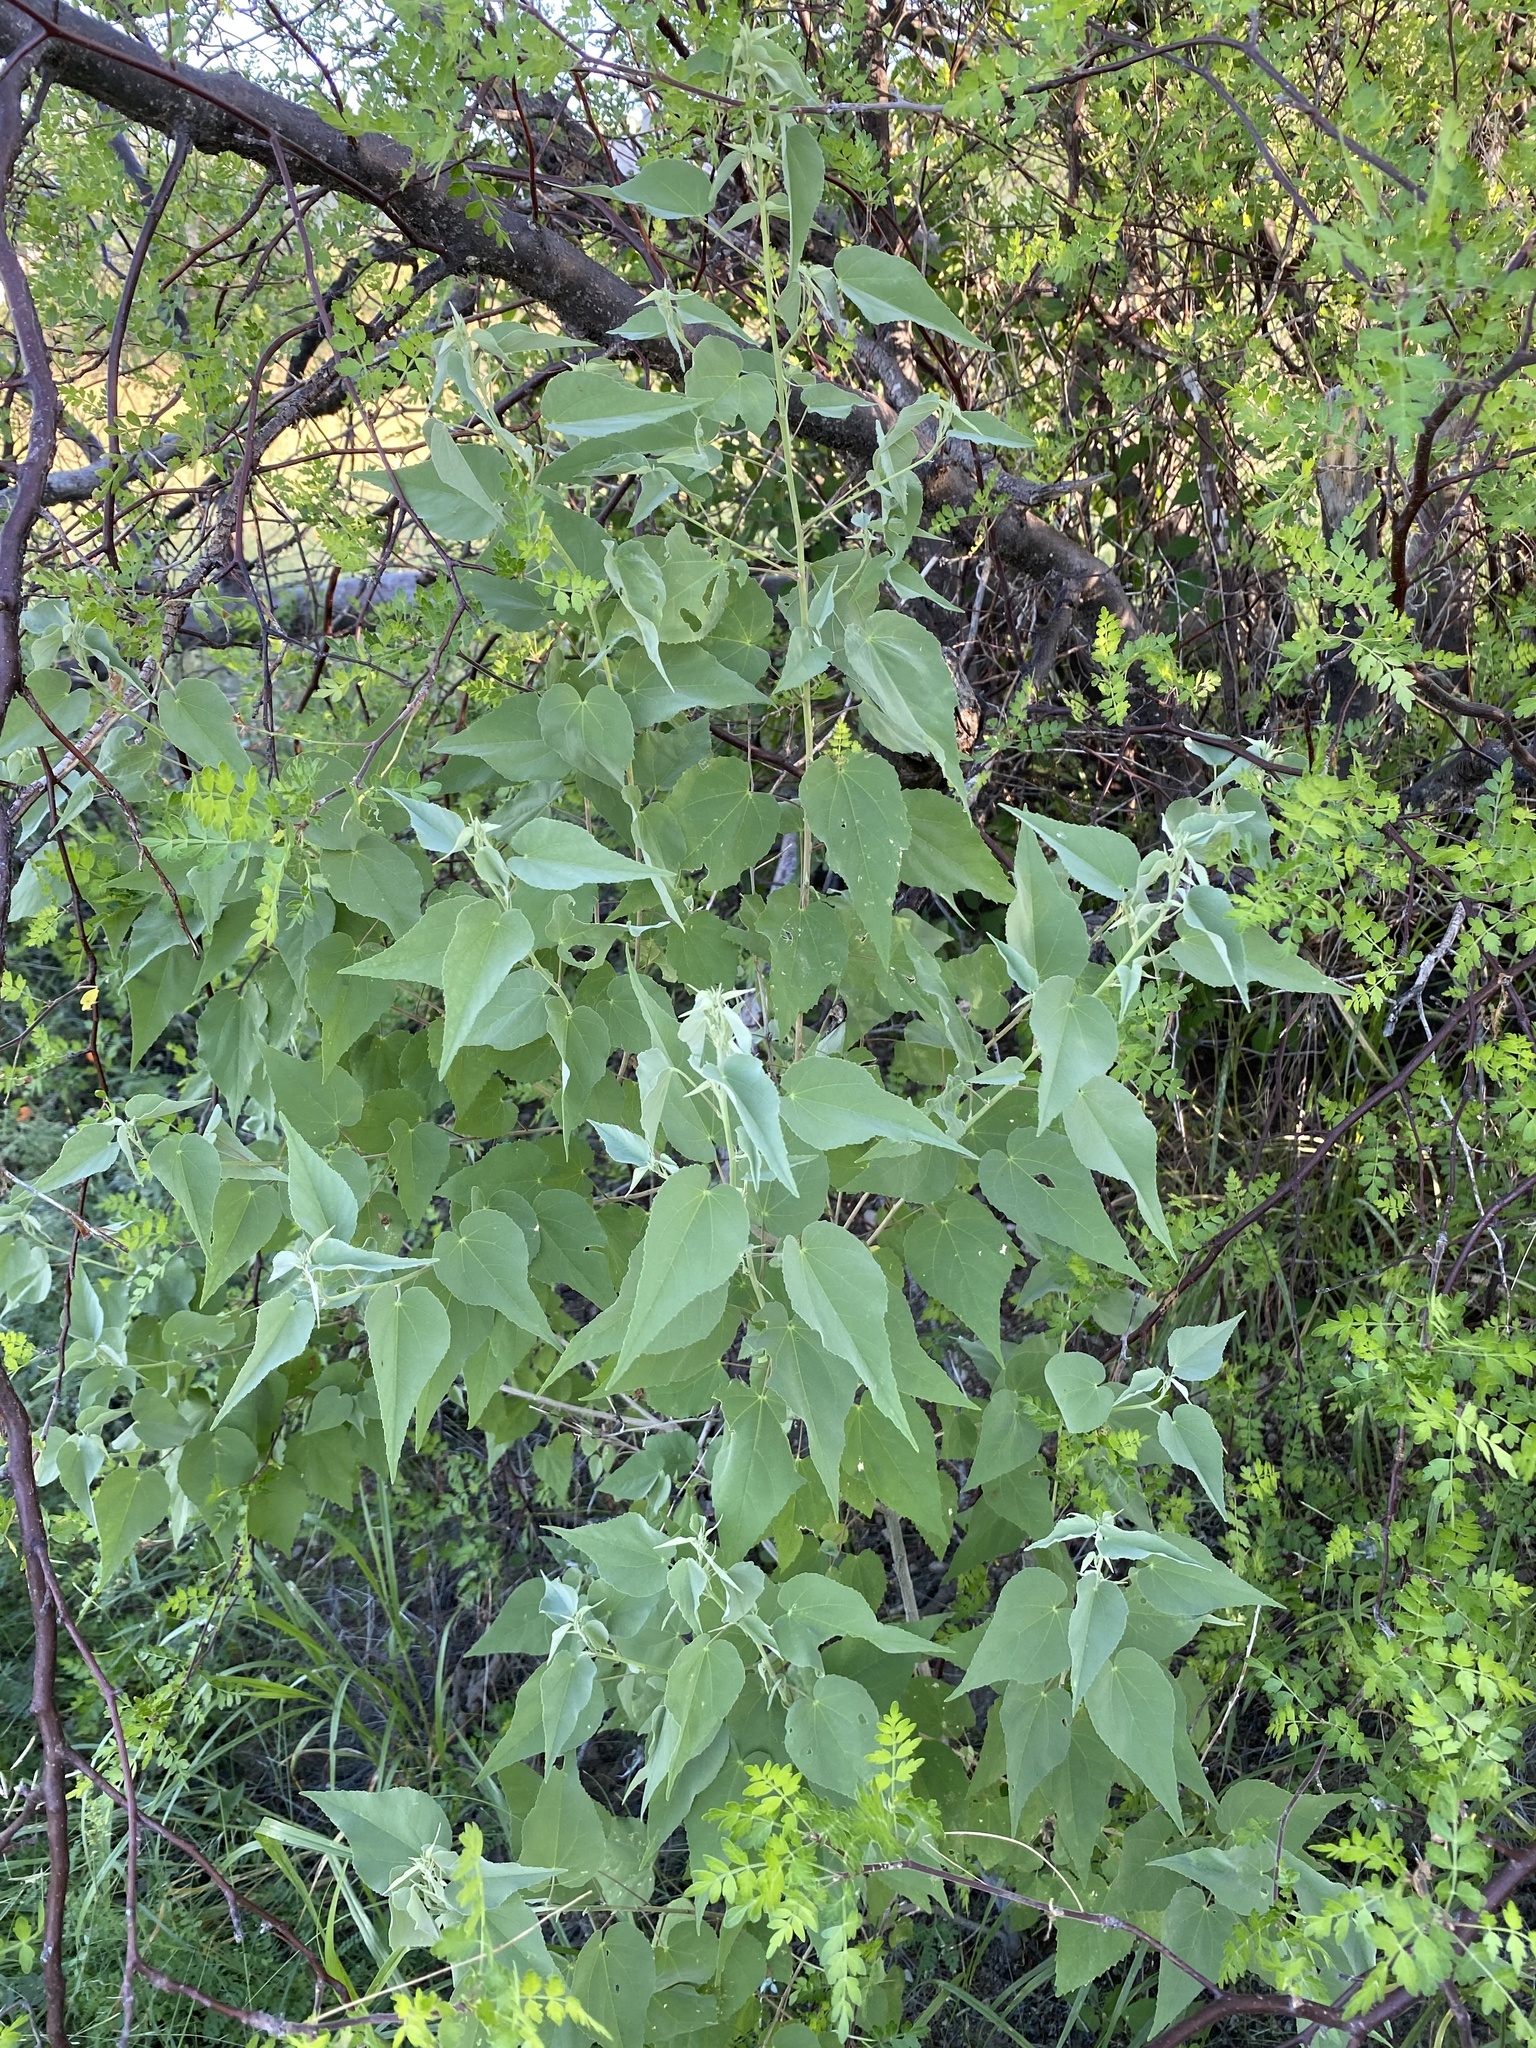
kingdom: Plantae
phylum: Tracheophyta
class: Magnoliopsida
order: Malvales
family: Malvaceae
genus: Abutilon
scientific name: Abutilon incanum
